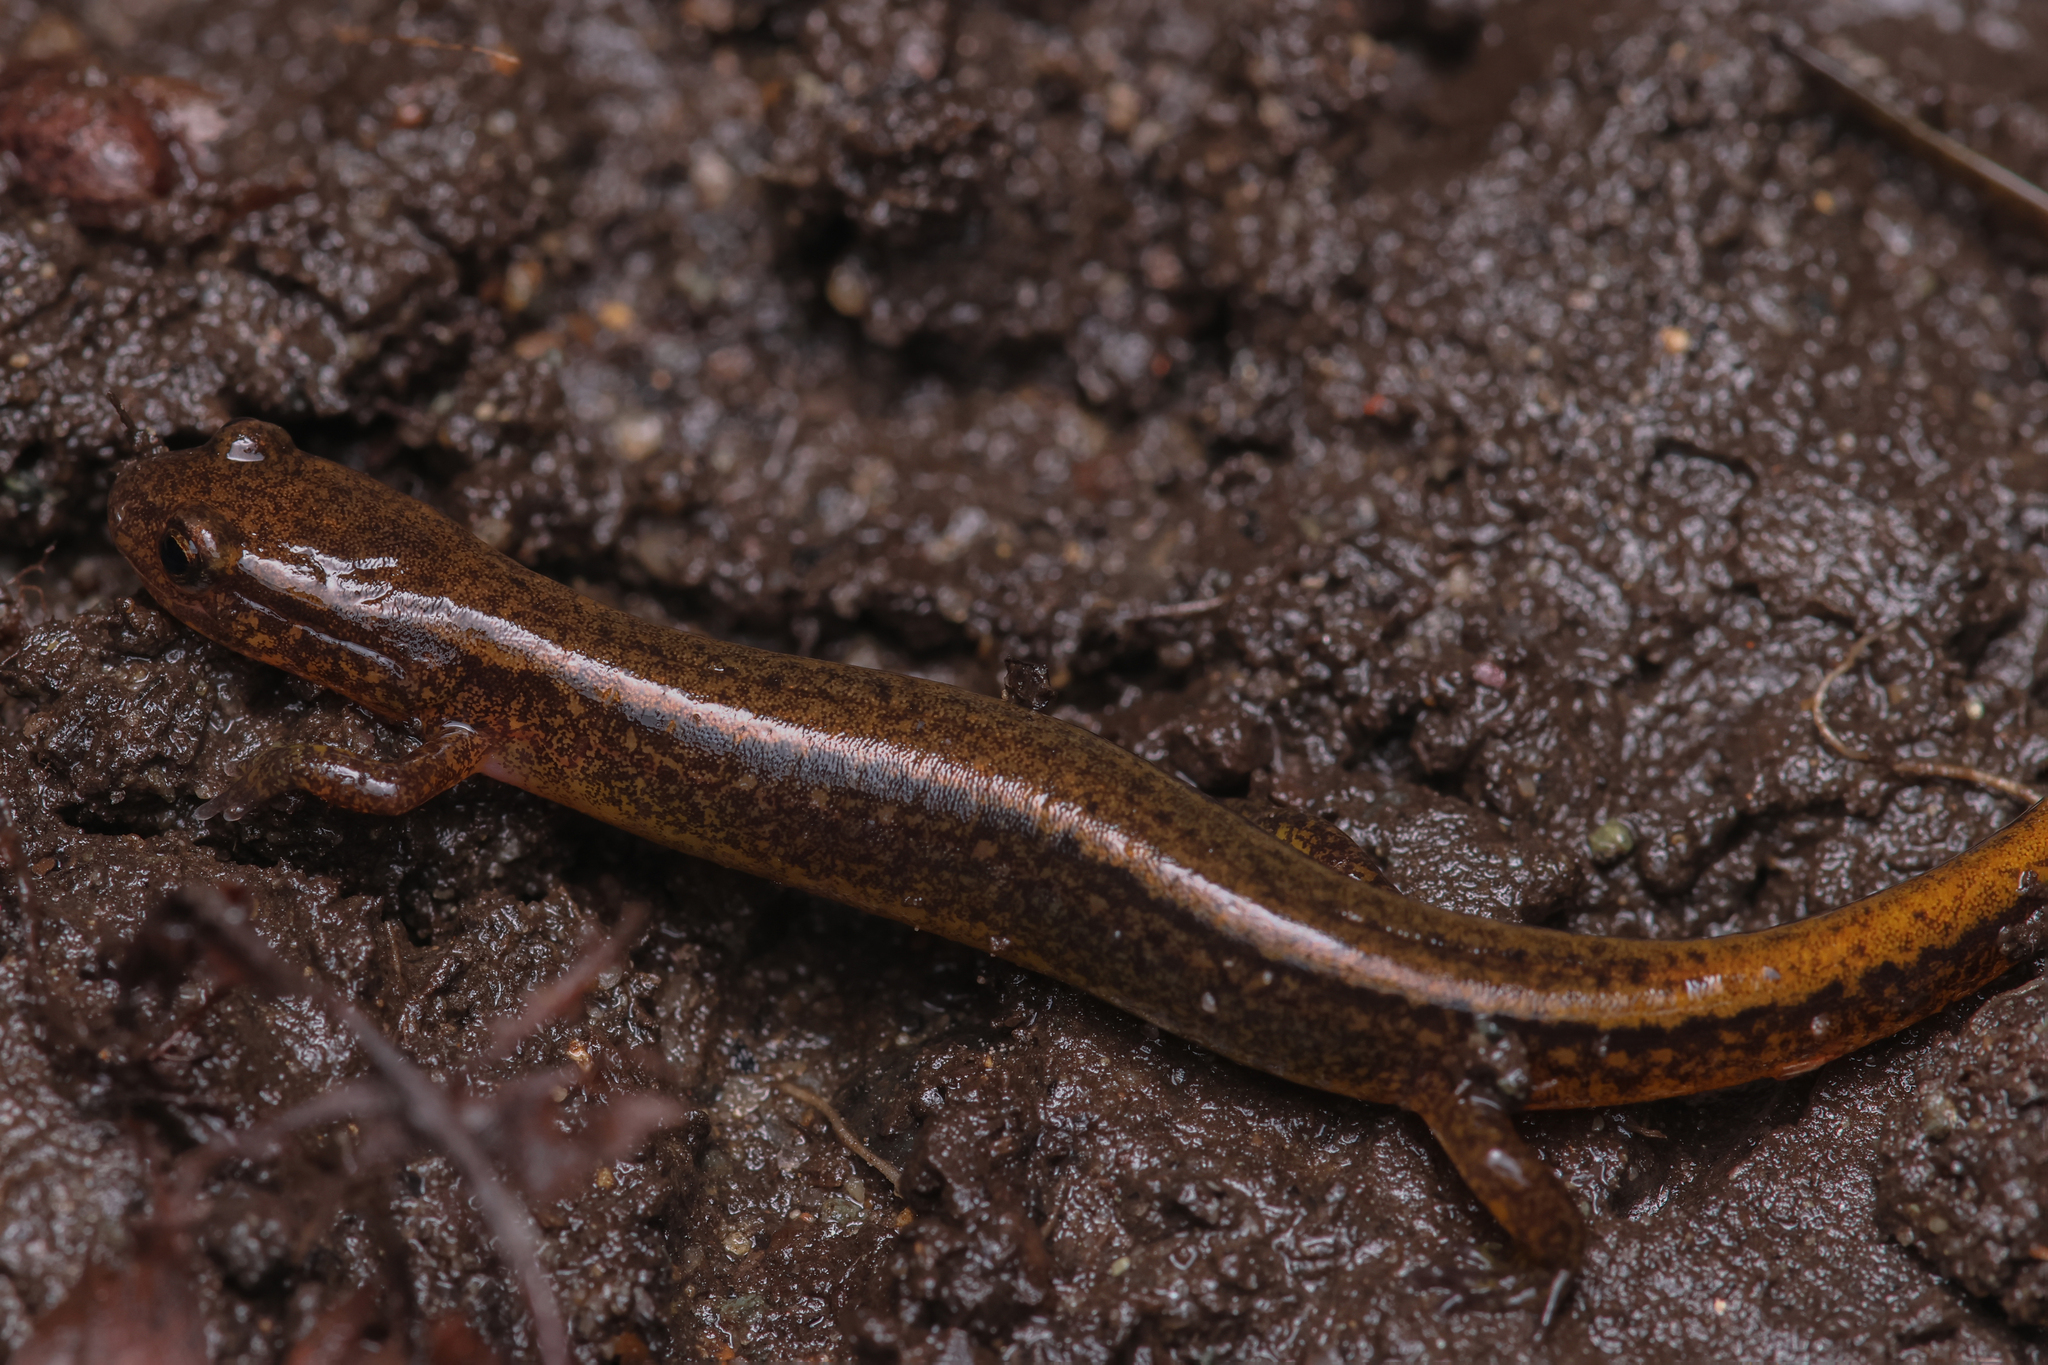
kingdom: Animalia
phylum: Chordata
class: Amphibia
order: Caudata
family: Plethodontidae
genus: Eurycea
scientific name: Eurycea bislineata
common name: Northern two-lined salamander
